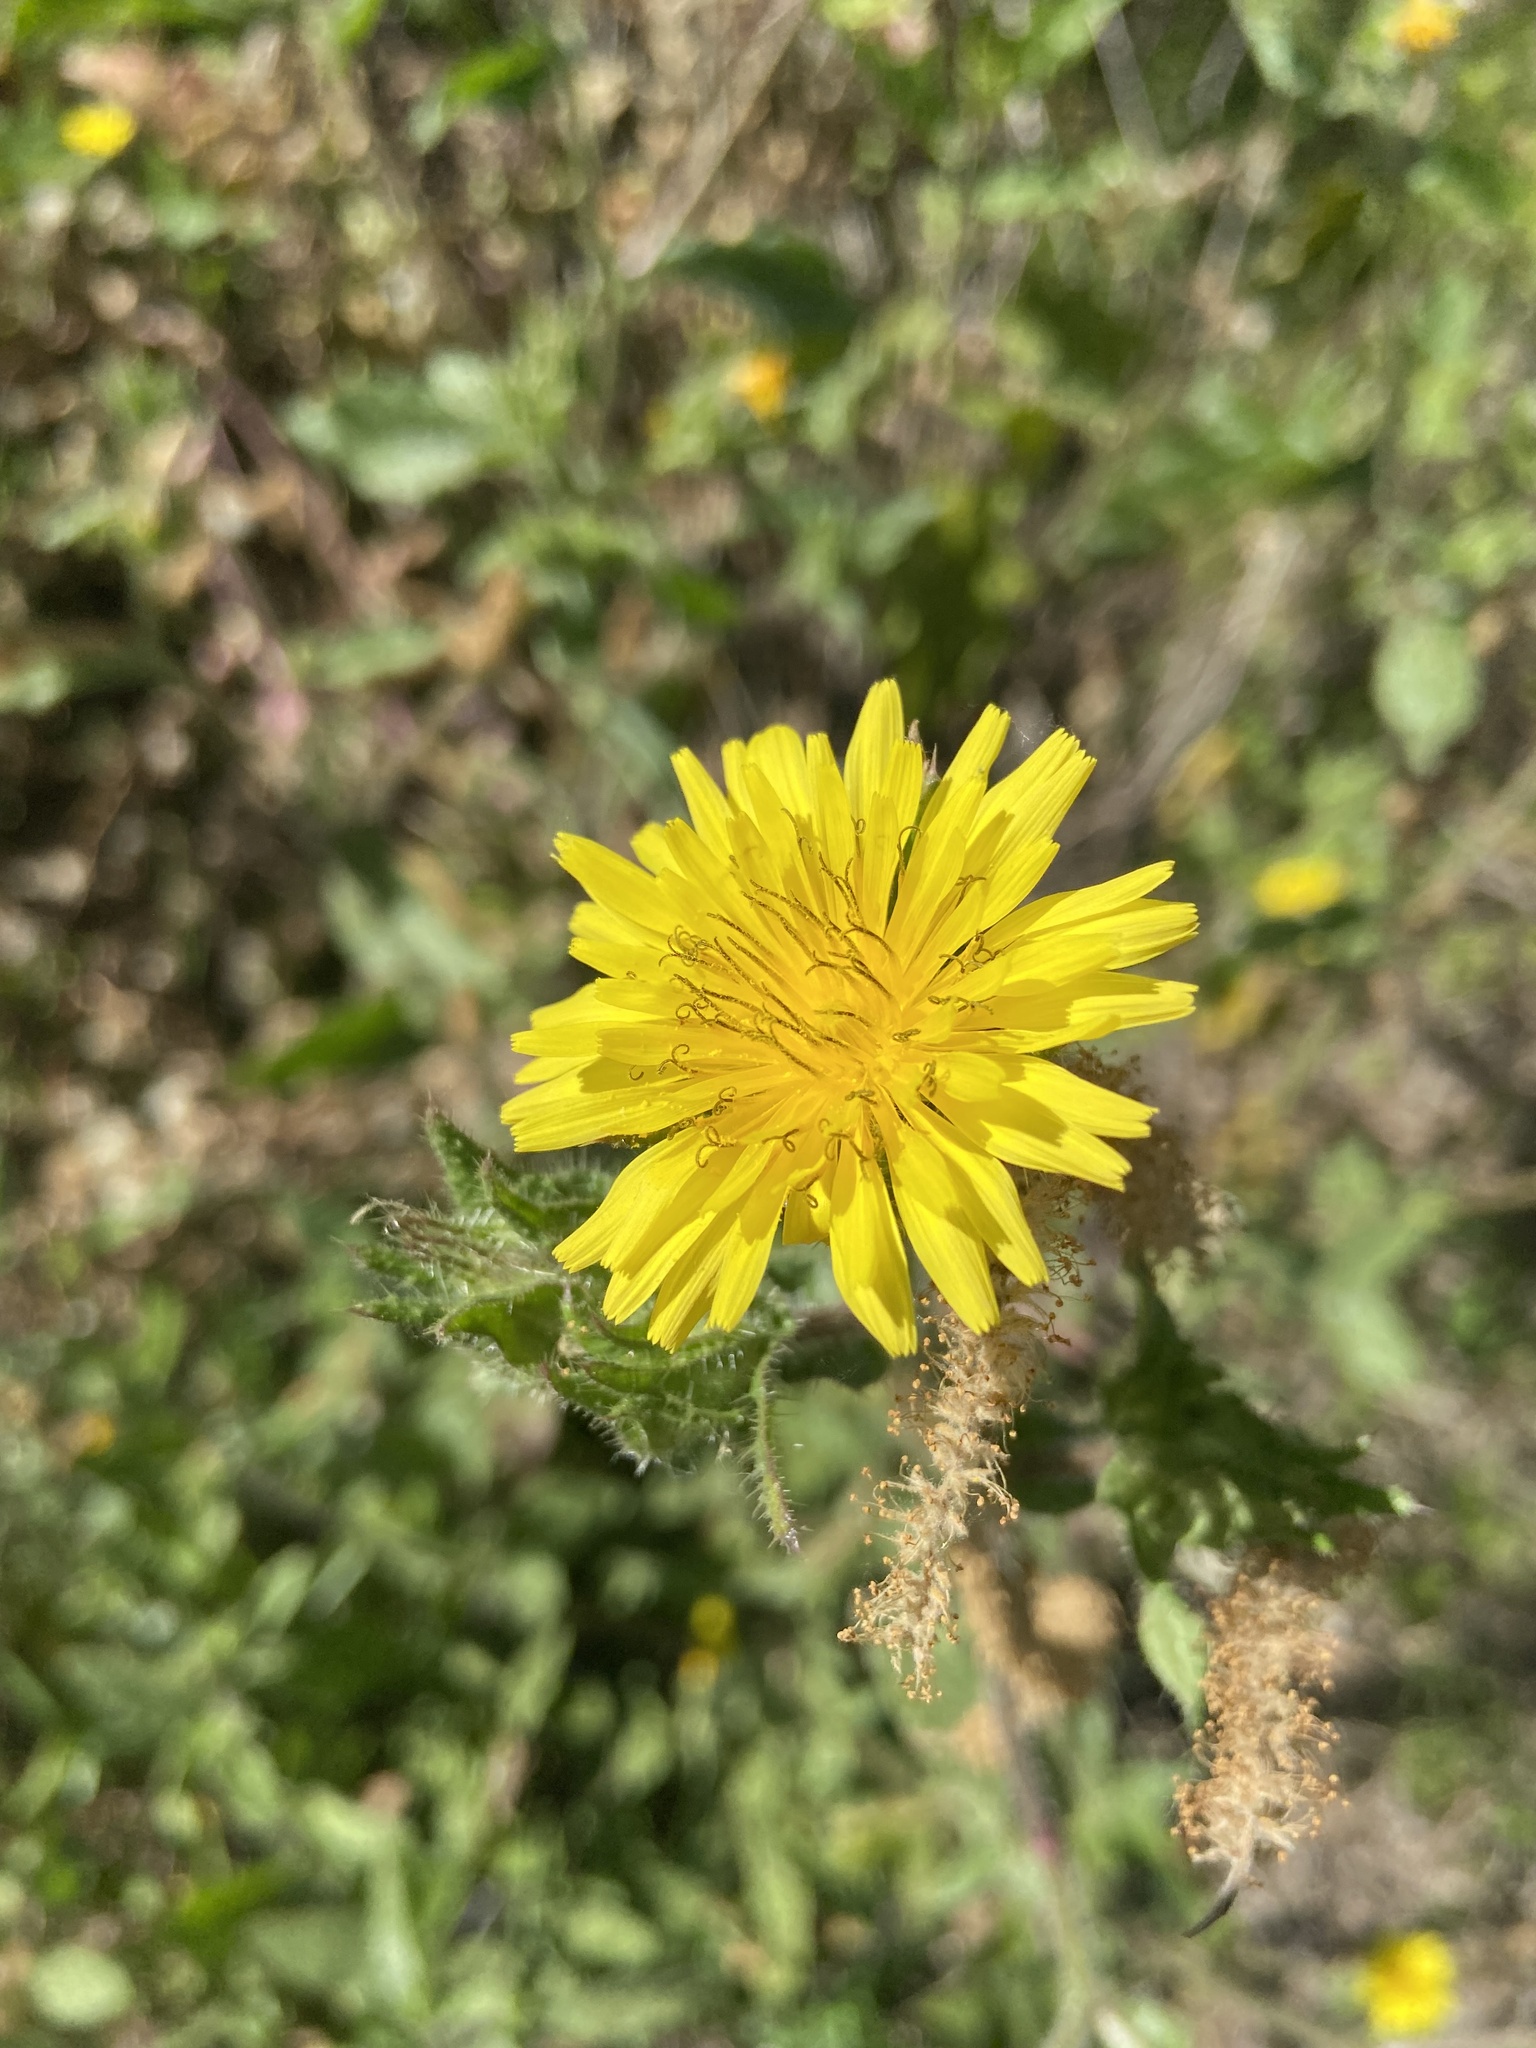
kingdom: Plantae
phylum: Tracheophyta
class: Magnoliopsida
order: Asterales
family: Asteraceae
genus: Helminthotheca
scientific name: Helminthotheca echioides
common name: Ox-tongue
